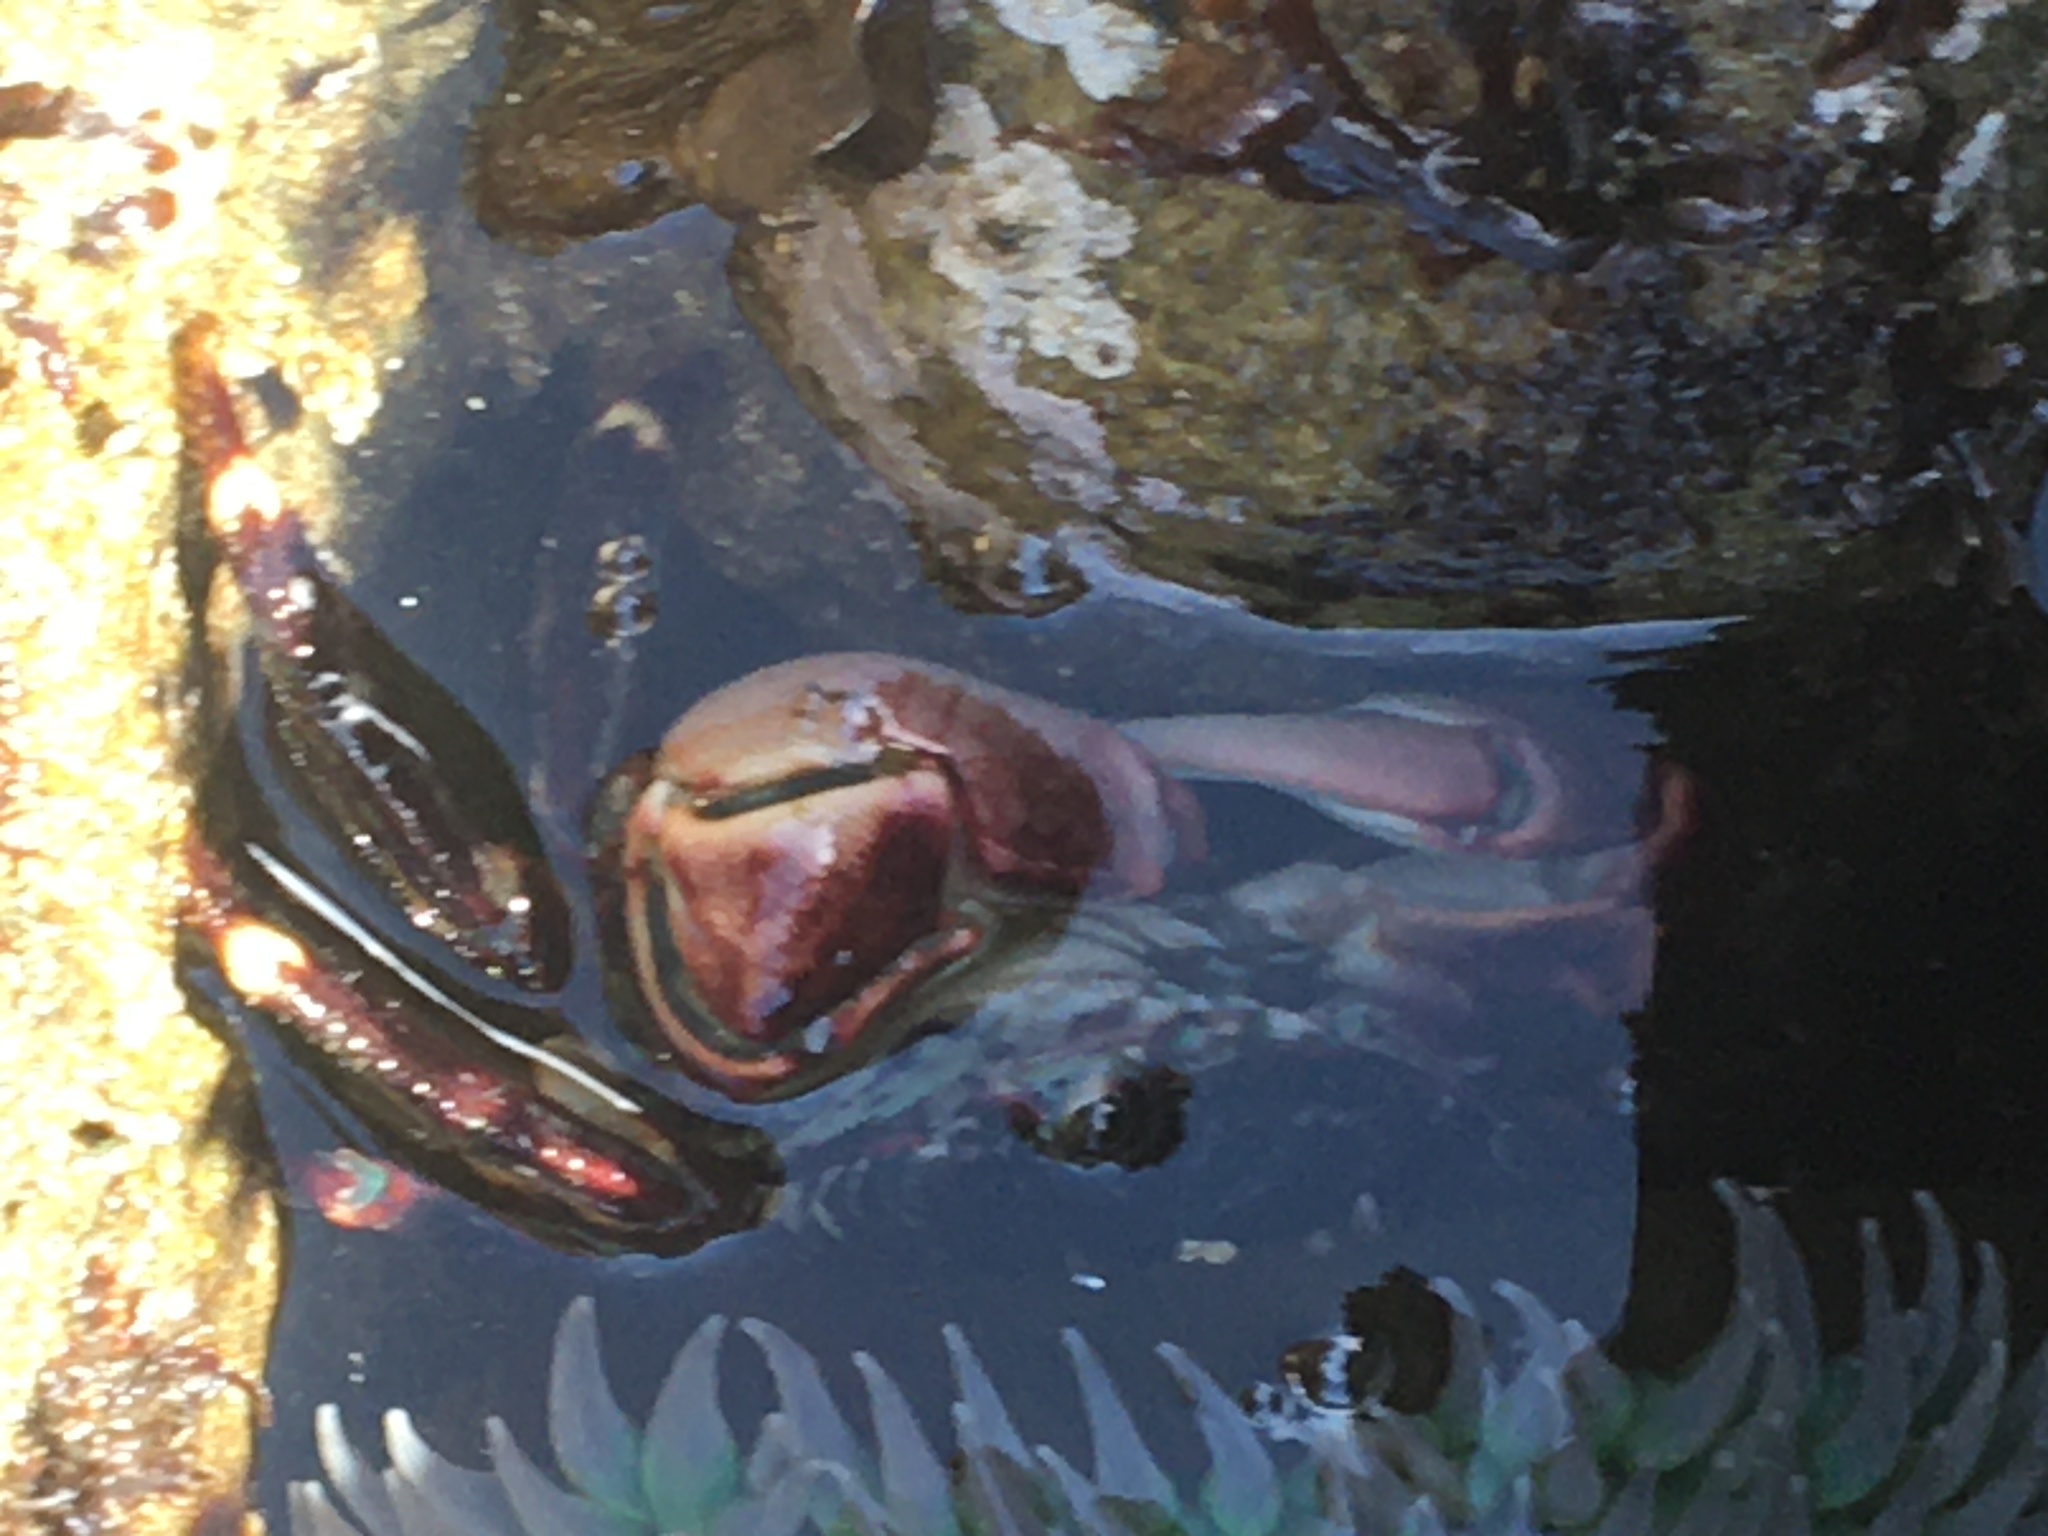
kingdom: Animalia
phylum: Arthropoda
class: Malacostraca
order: Decapoda
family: Grapsidae
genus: Pachygrapsus
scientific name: Pachygrapsus crassipes
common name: Striped shore crab
